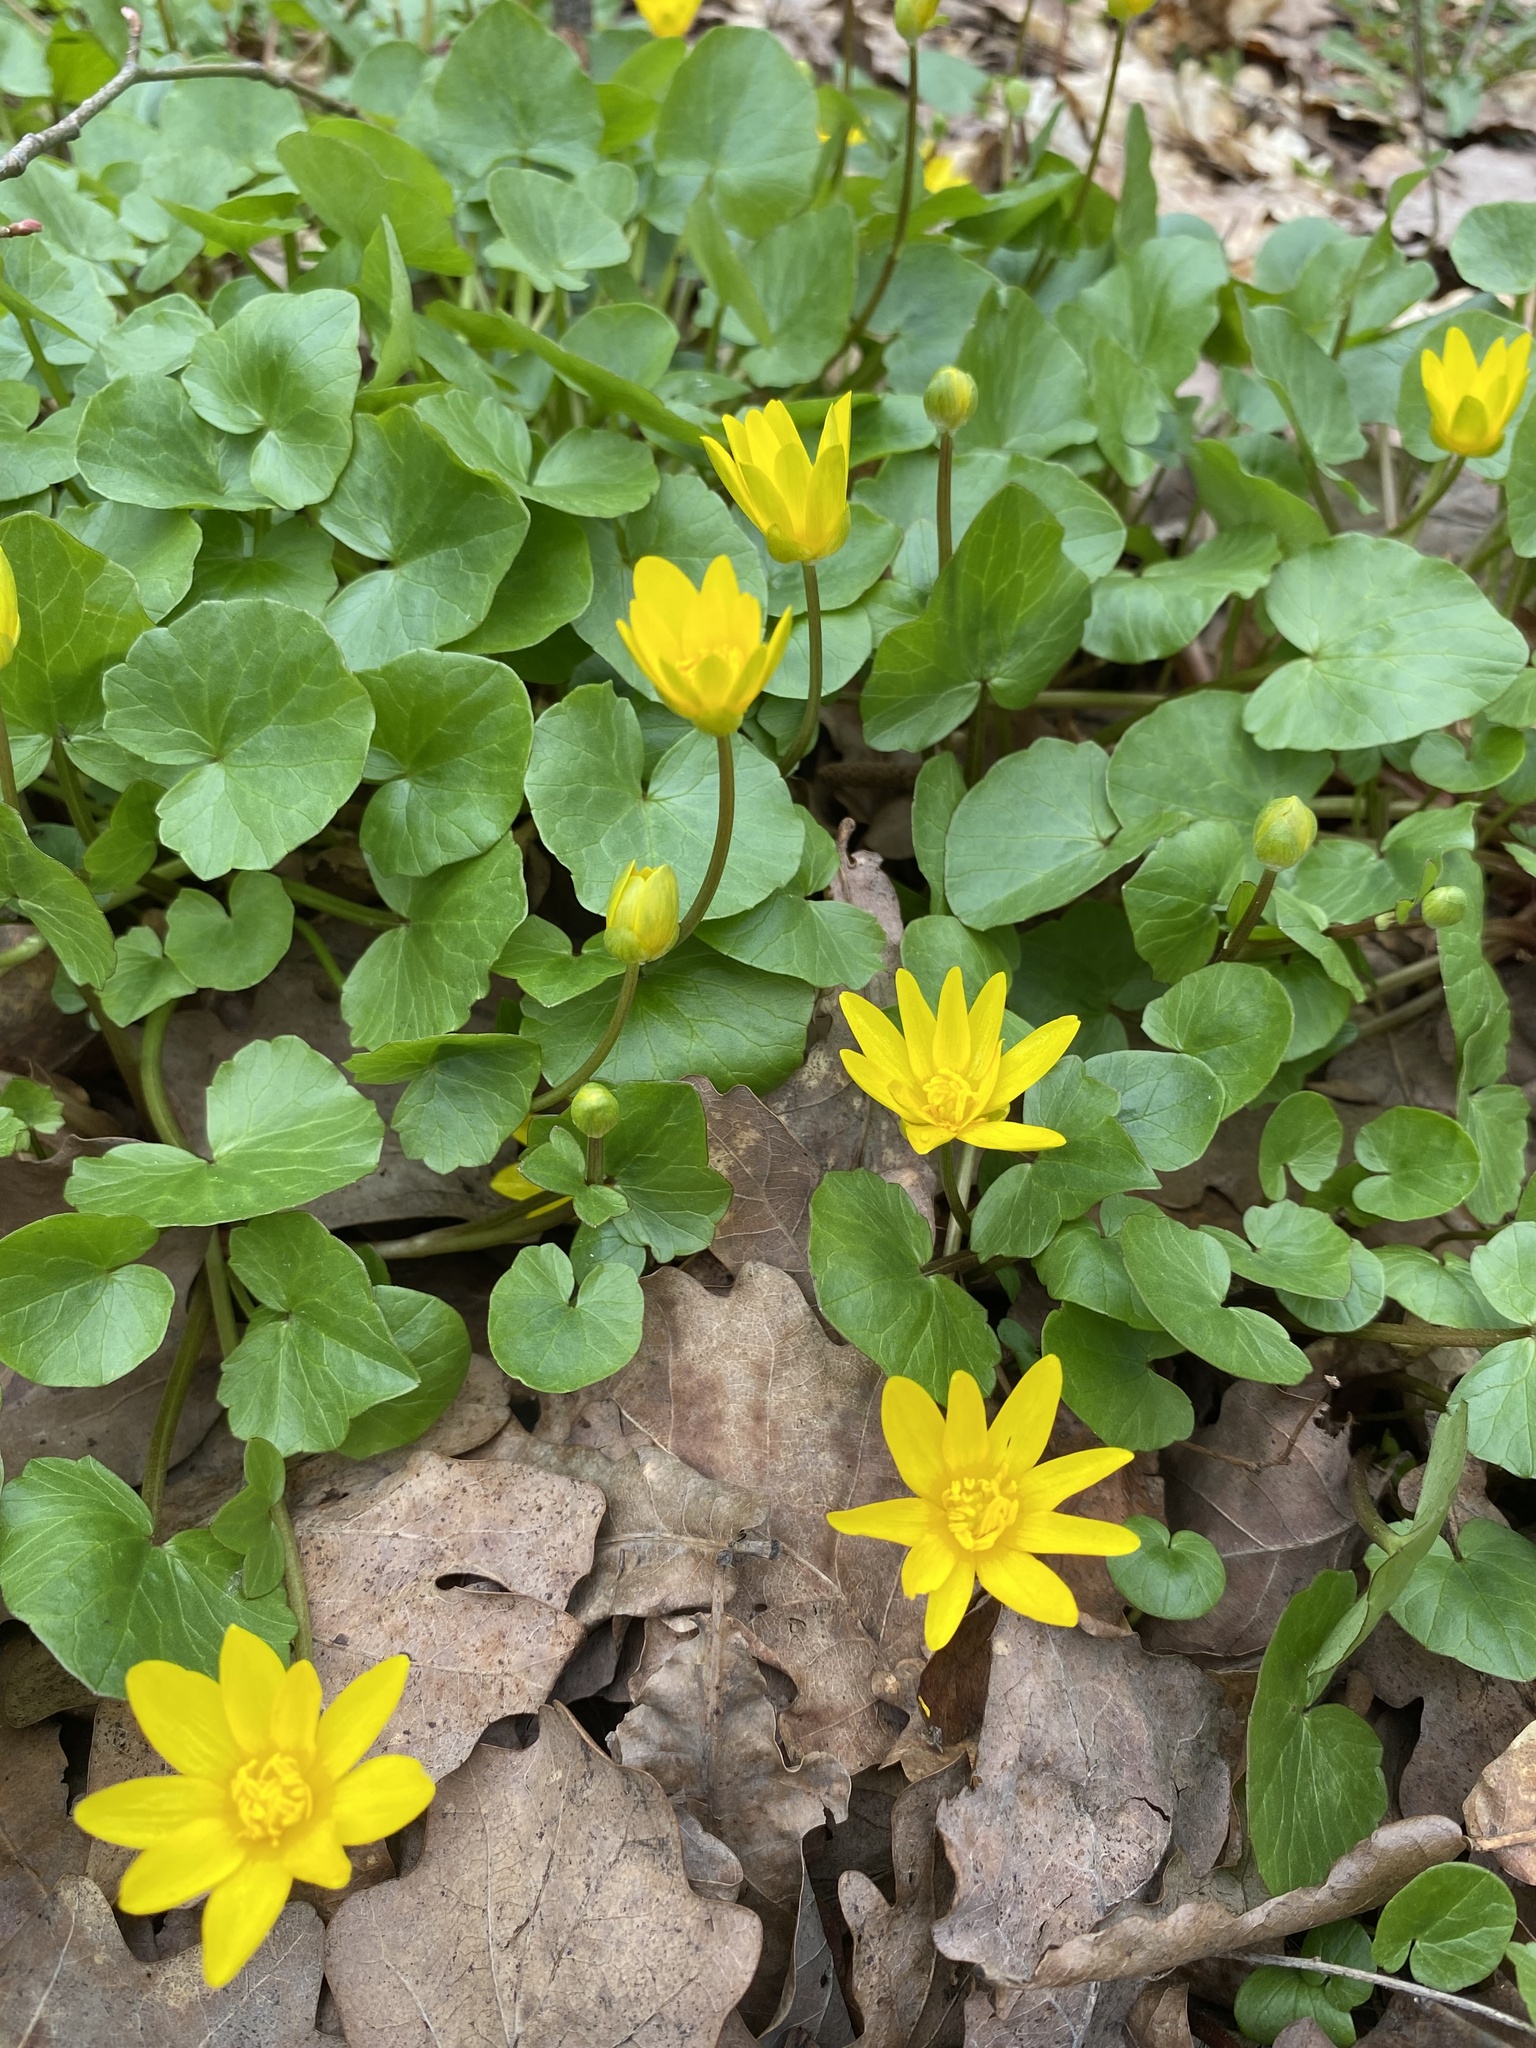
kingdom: Plantae
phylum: Tracheophyta
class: Magnoliopsida
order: Ranunculales
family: Ranunculaceae
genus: Ficaria
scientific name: Ficaria verna
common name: Lesser celandine
